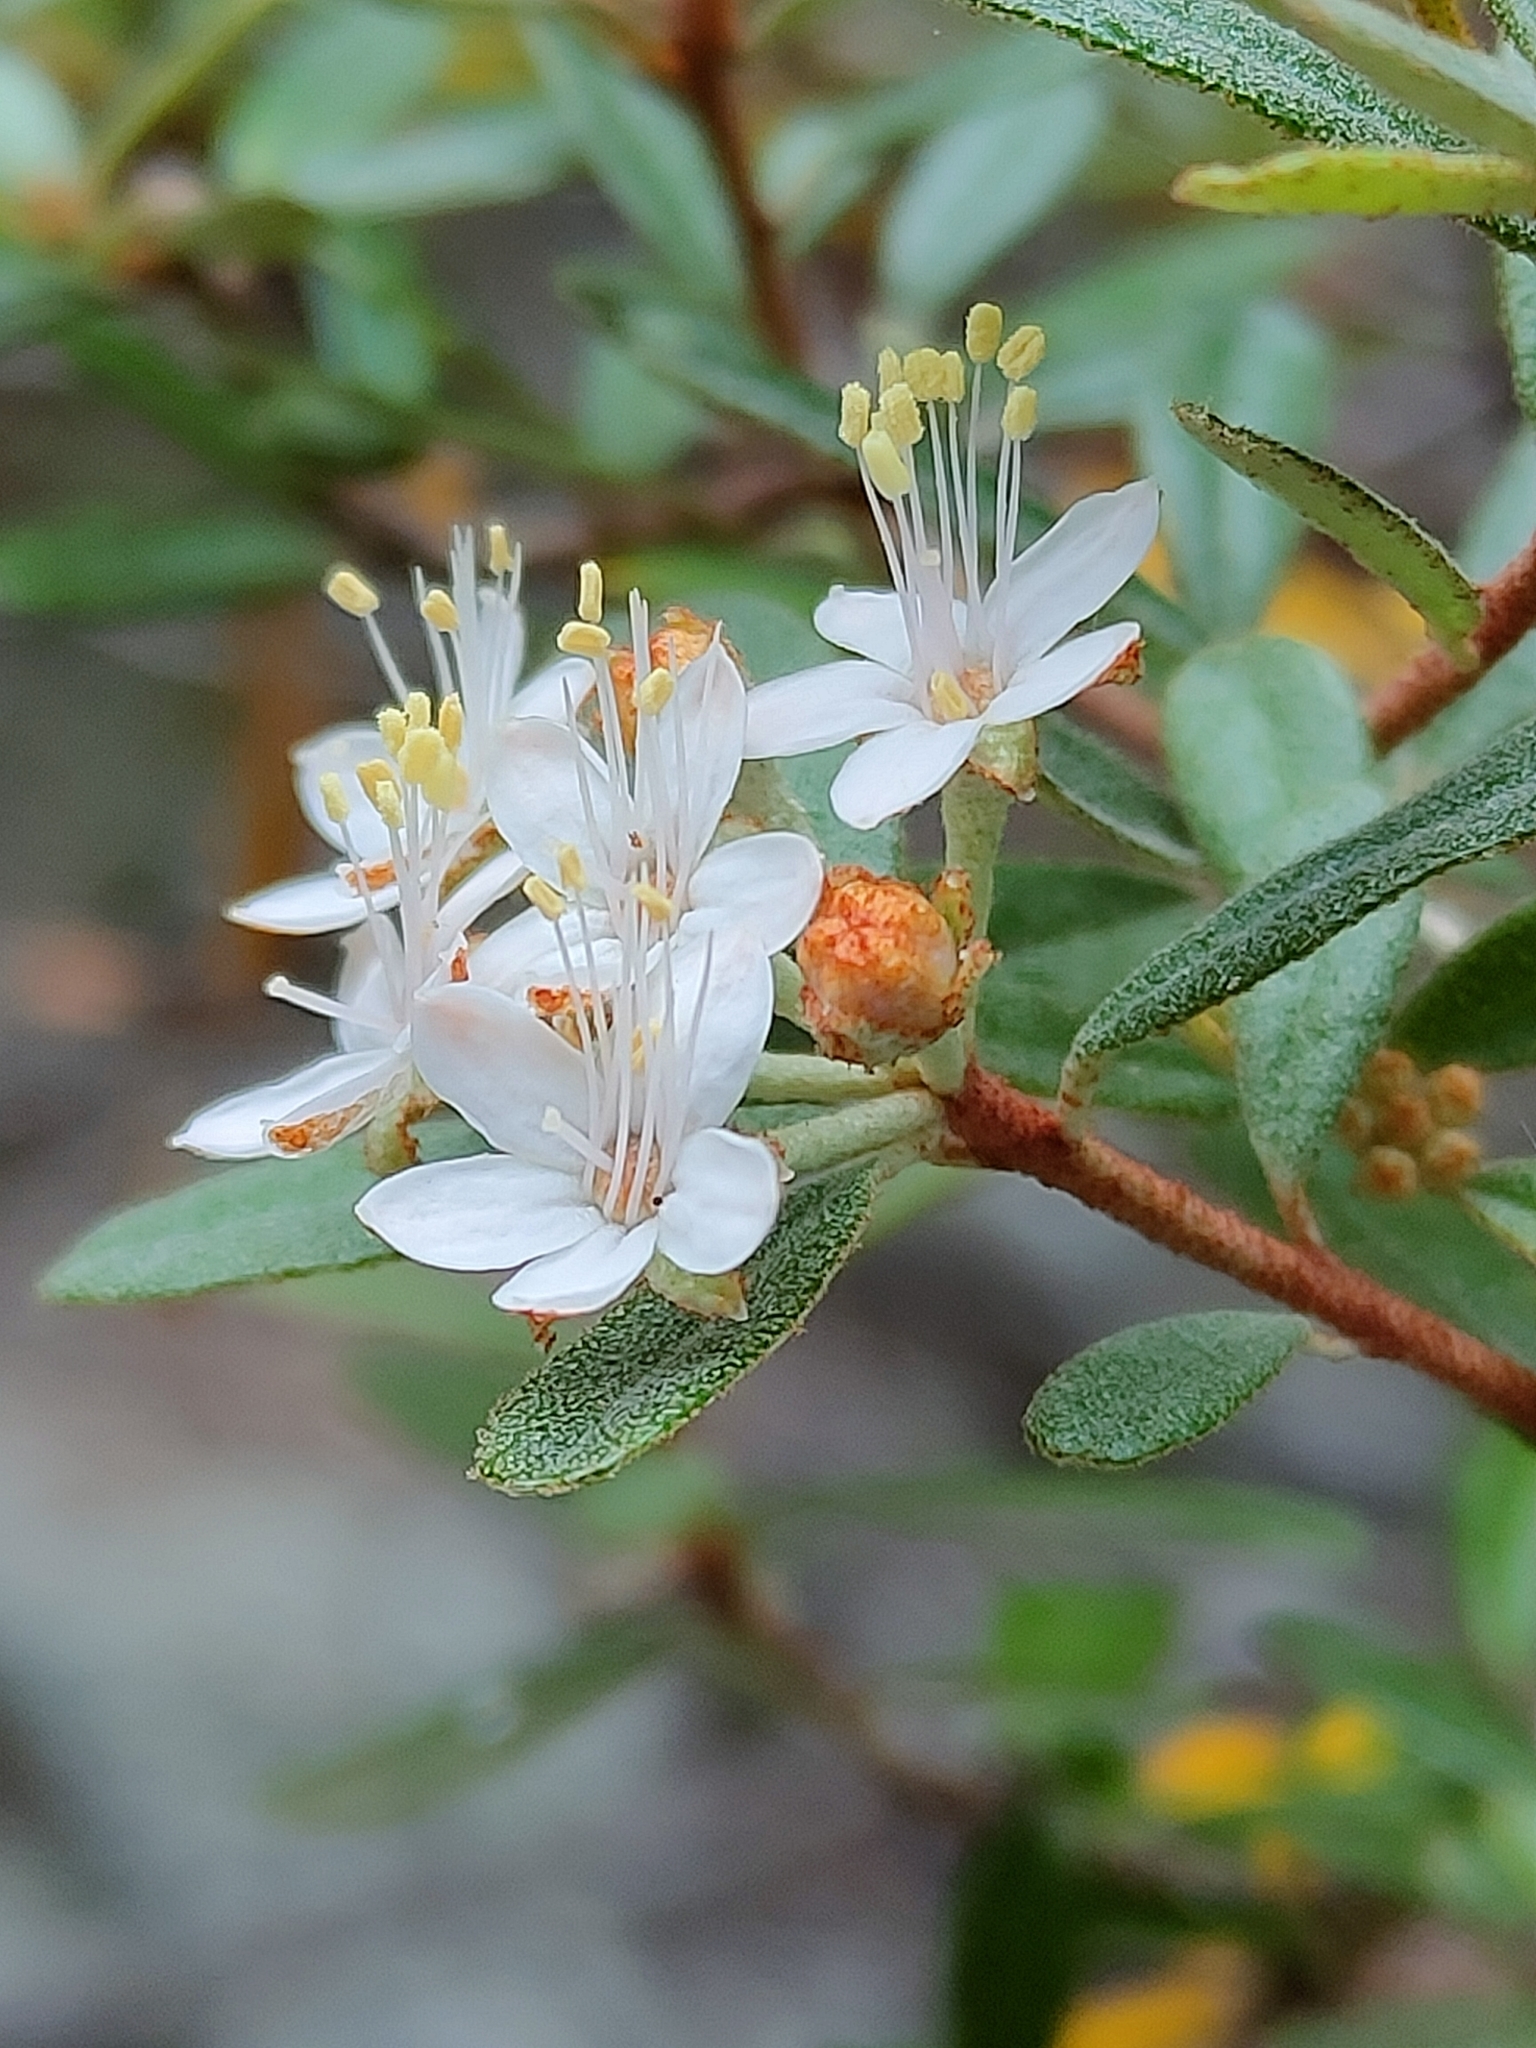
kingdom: Plantae
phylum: Tracheophyta
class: Magnoliopsida
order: Sapindales
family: Rutaceae
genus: Phebalium
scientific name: Phebalium woombye
